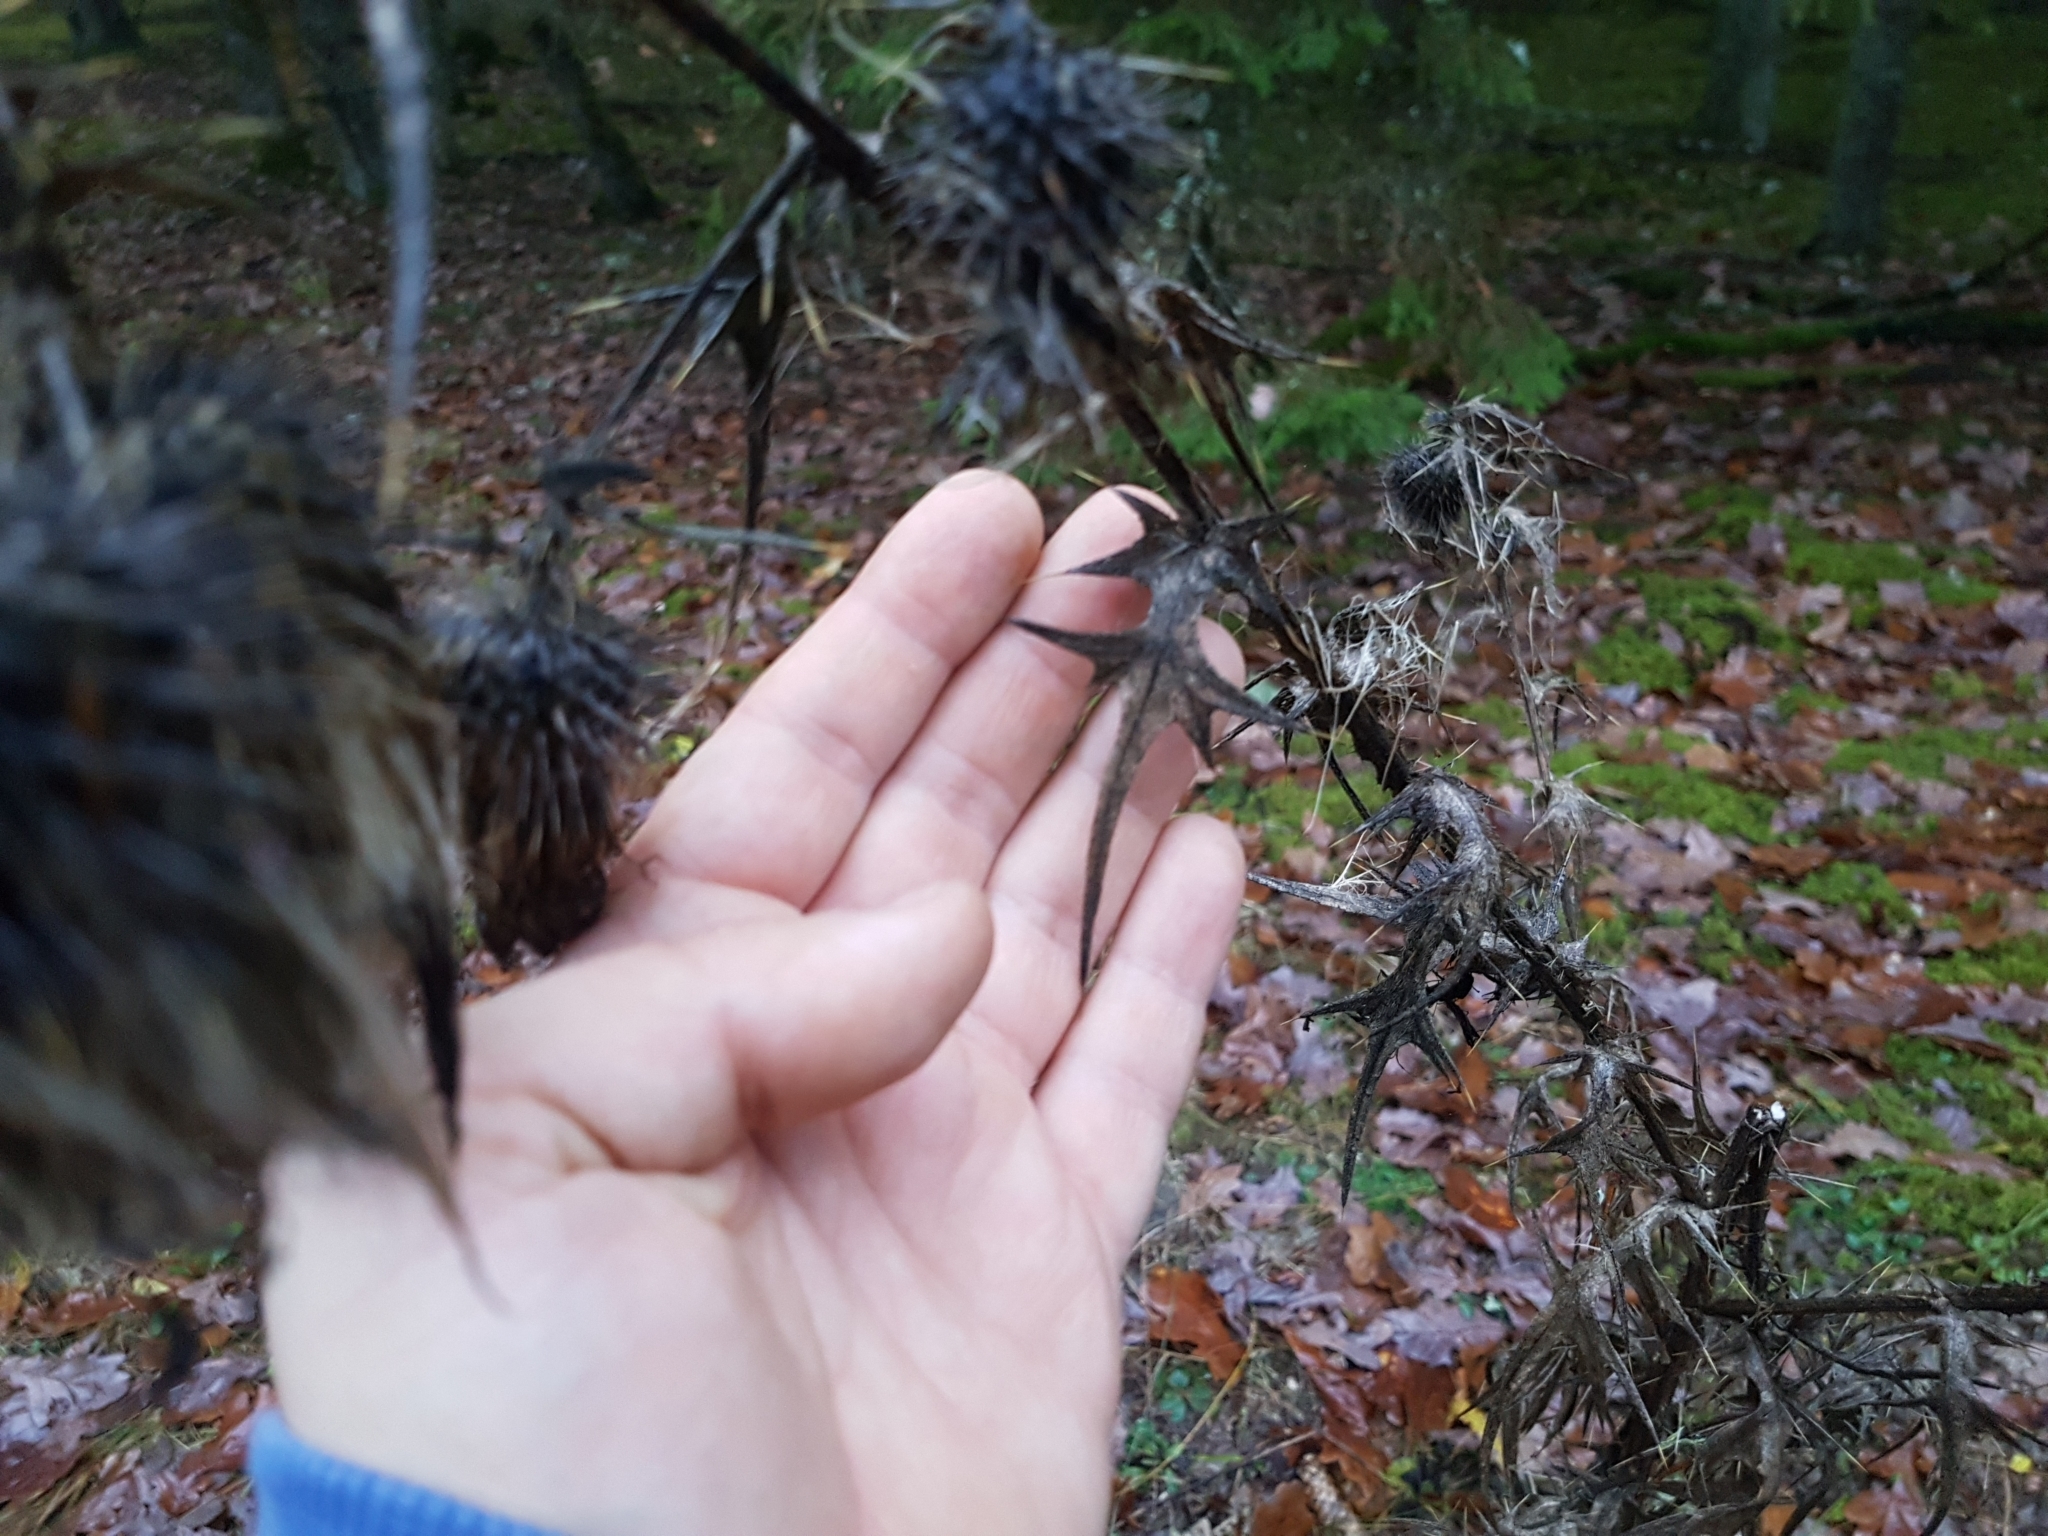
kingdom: Plantae
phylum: Tracheophyta
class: Magnoliopsida
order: Asterales
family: Asteraceae
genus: Cirsium
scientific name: Cirsium vulgare
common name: Bull thistle
